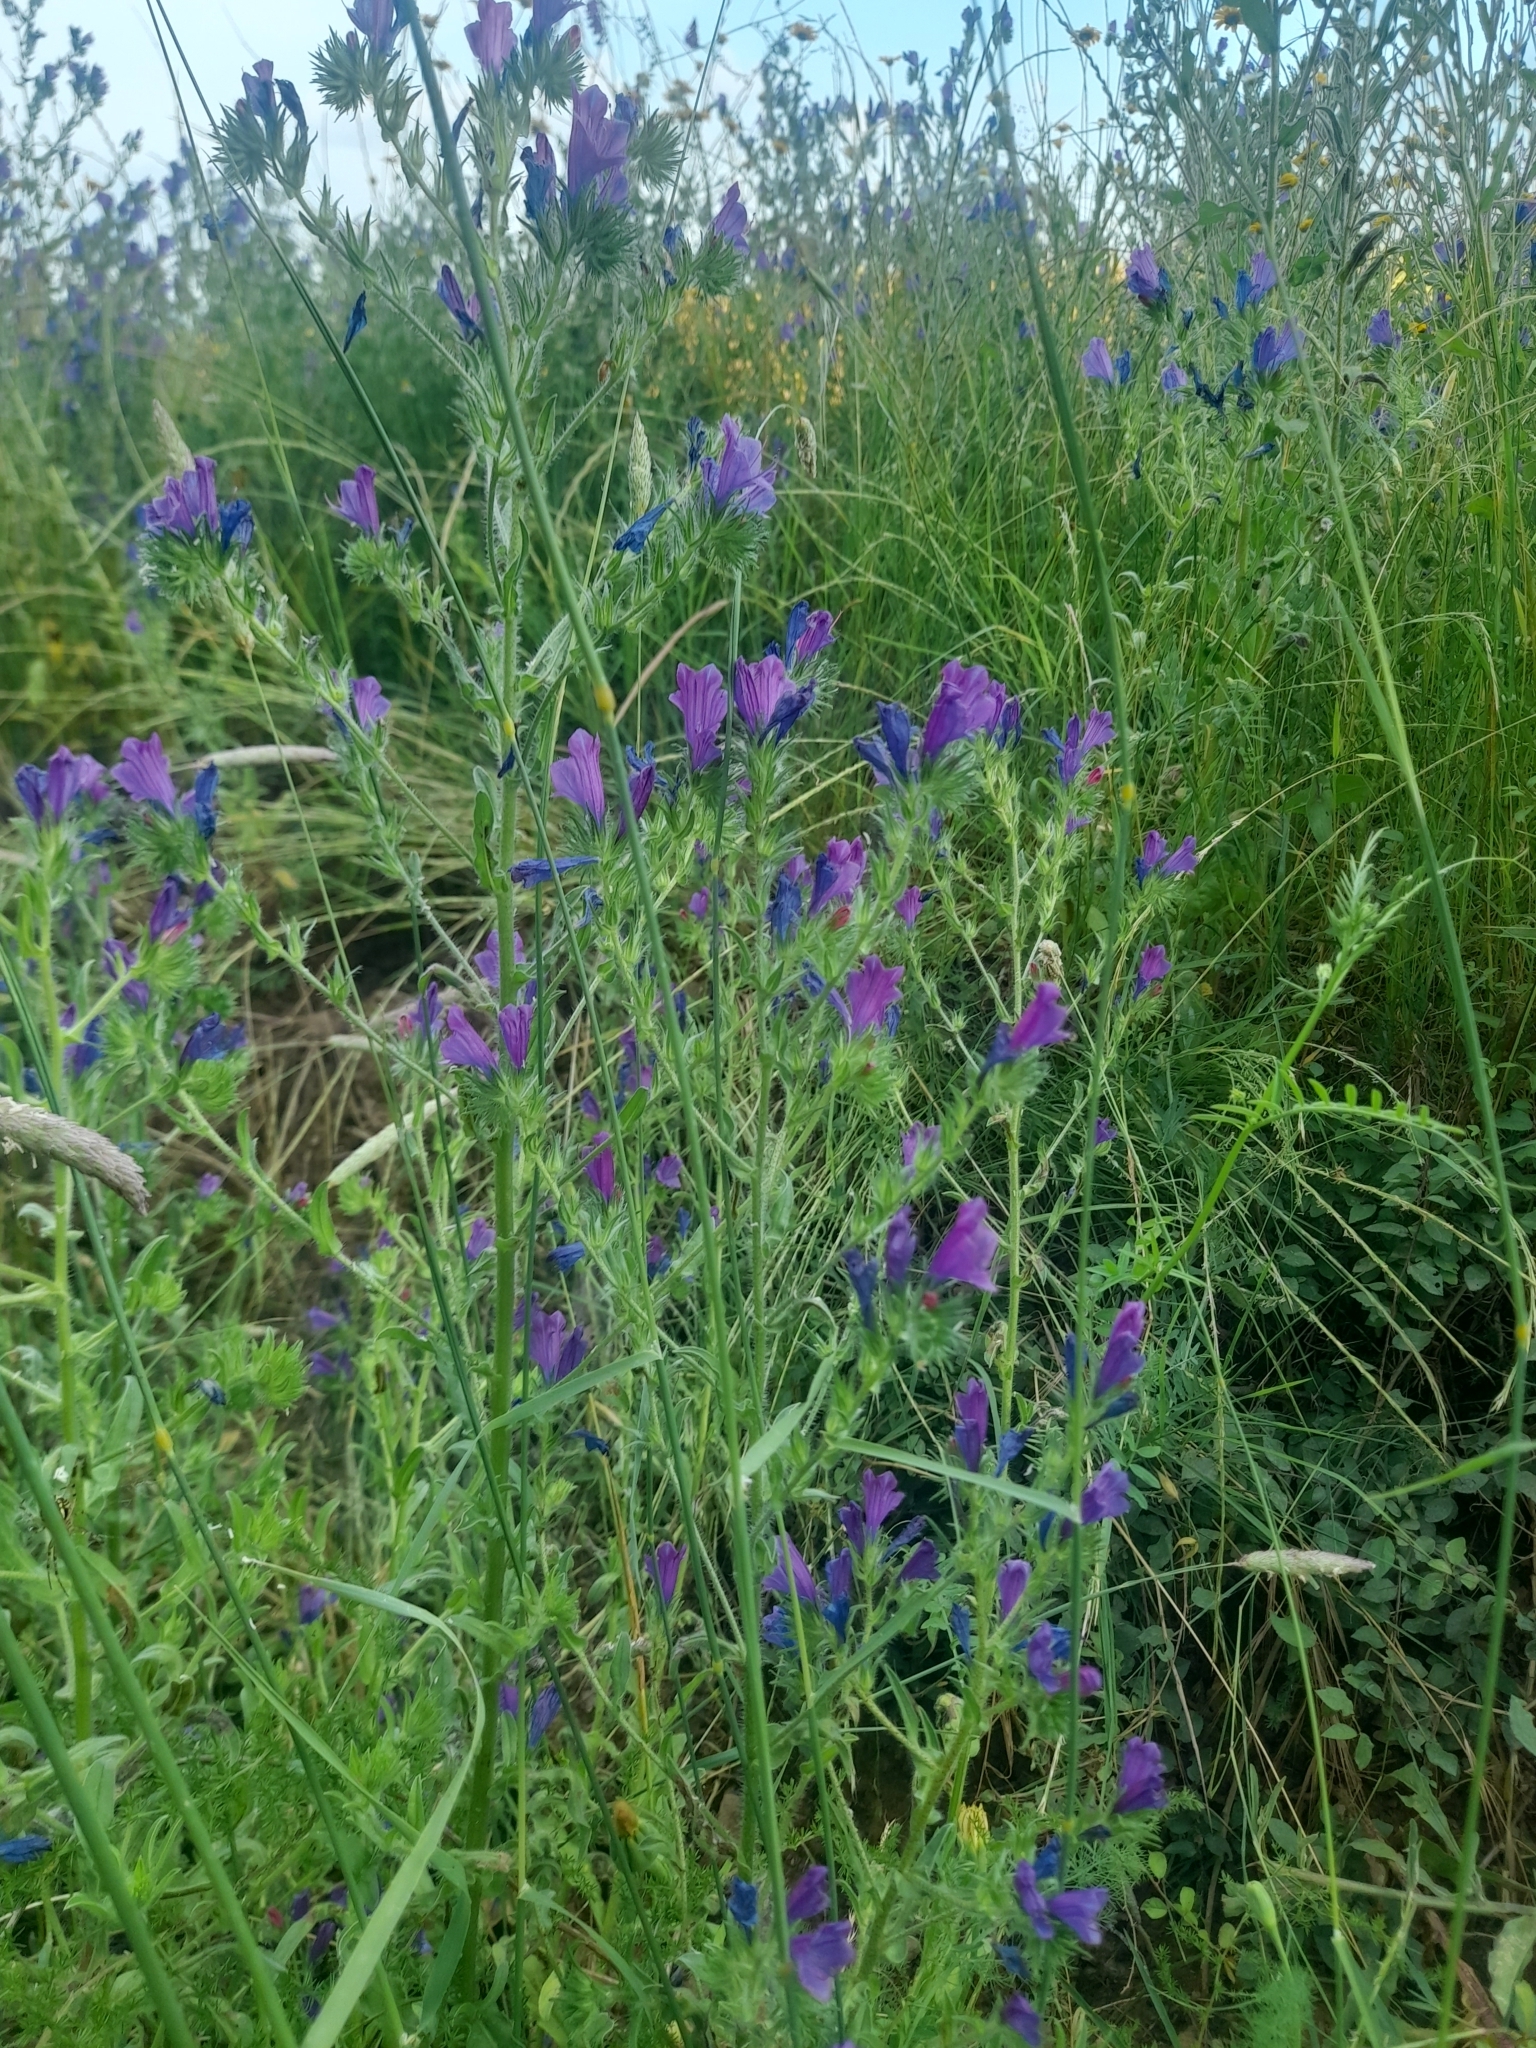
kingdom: Plantae
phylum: Tracheophyta
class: Magnoliopsida
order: Boraginales
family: Boraginaceae
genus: Echium
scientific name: Echium plantagineum
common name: Purple viper's-bugloss
